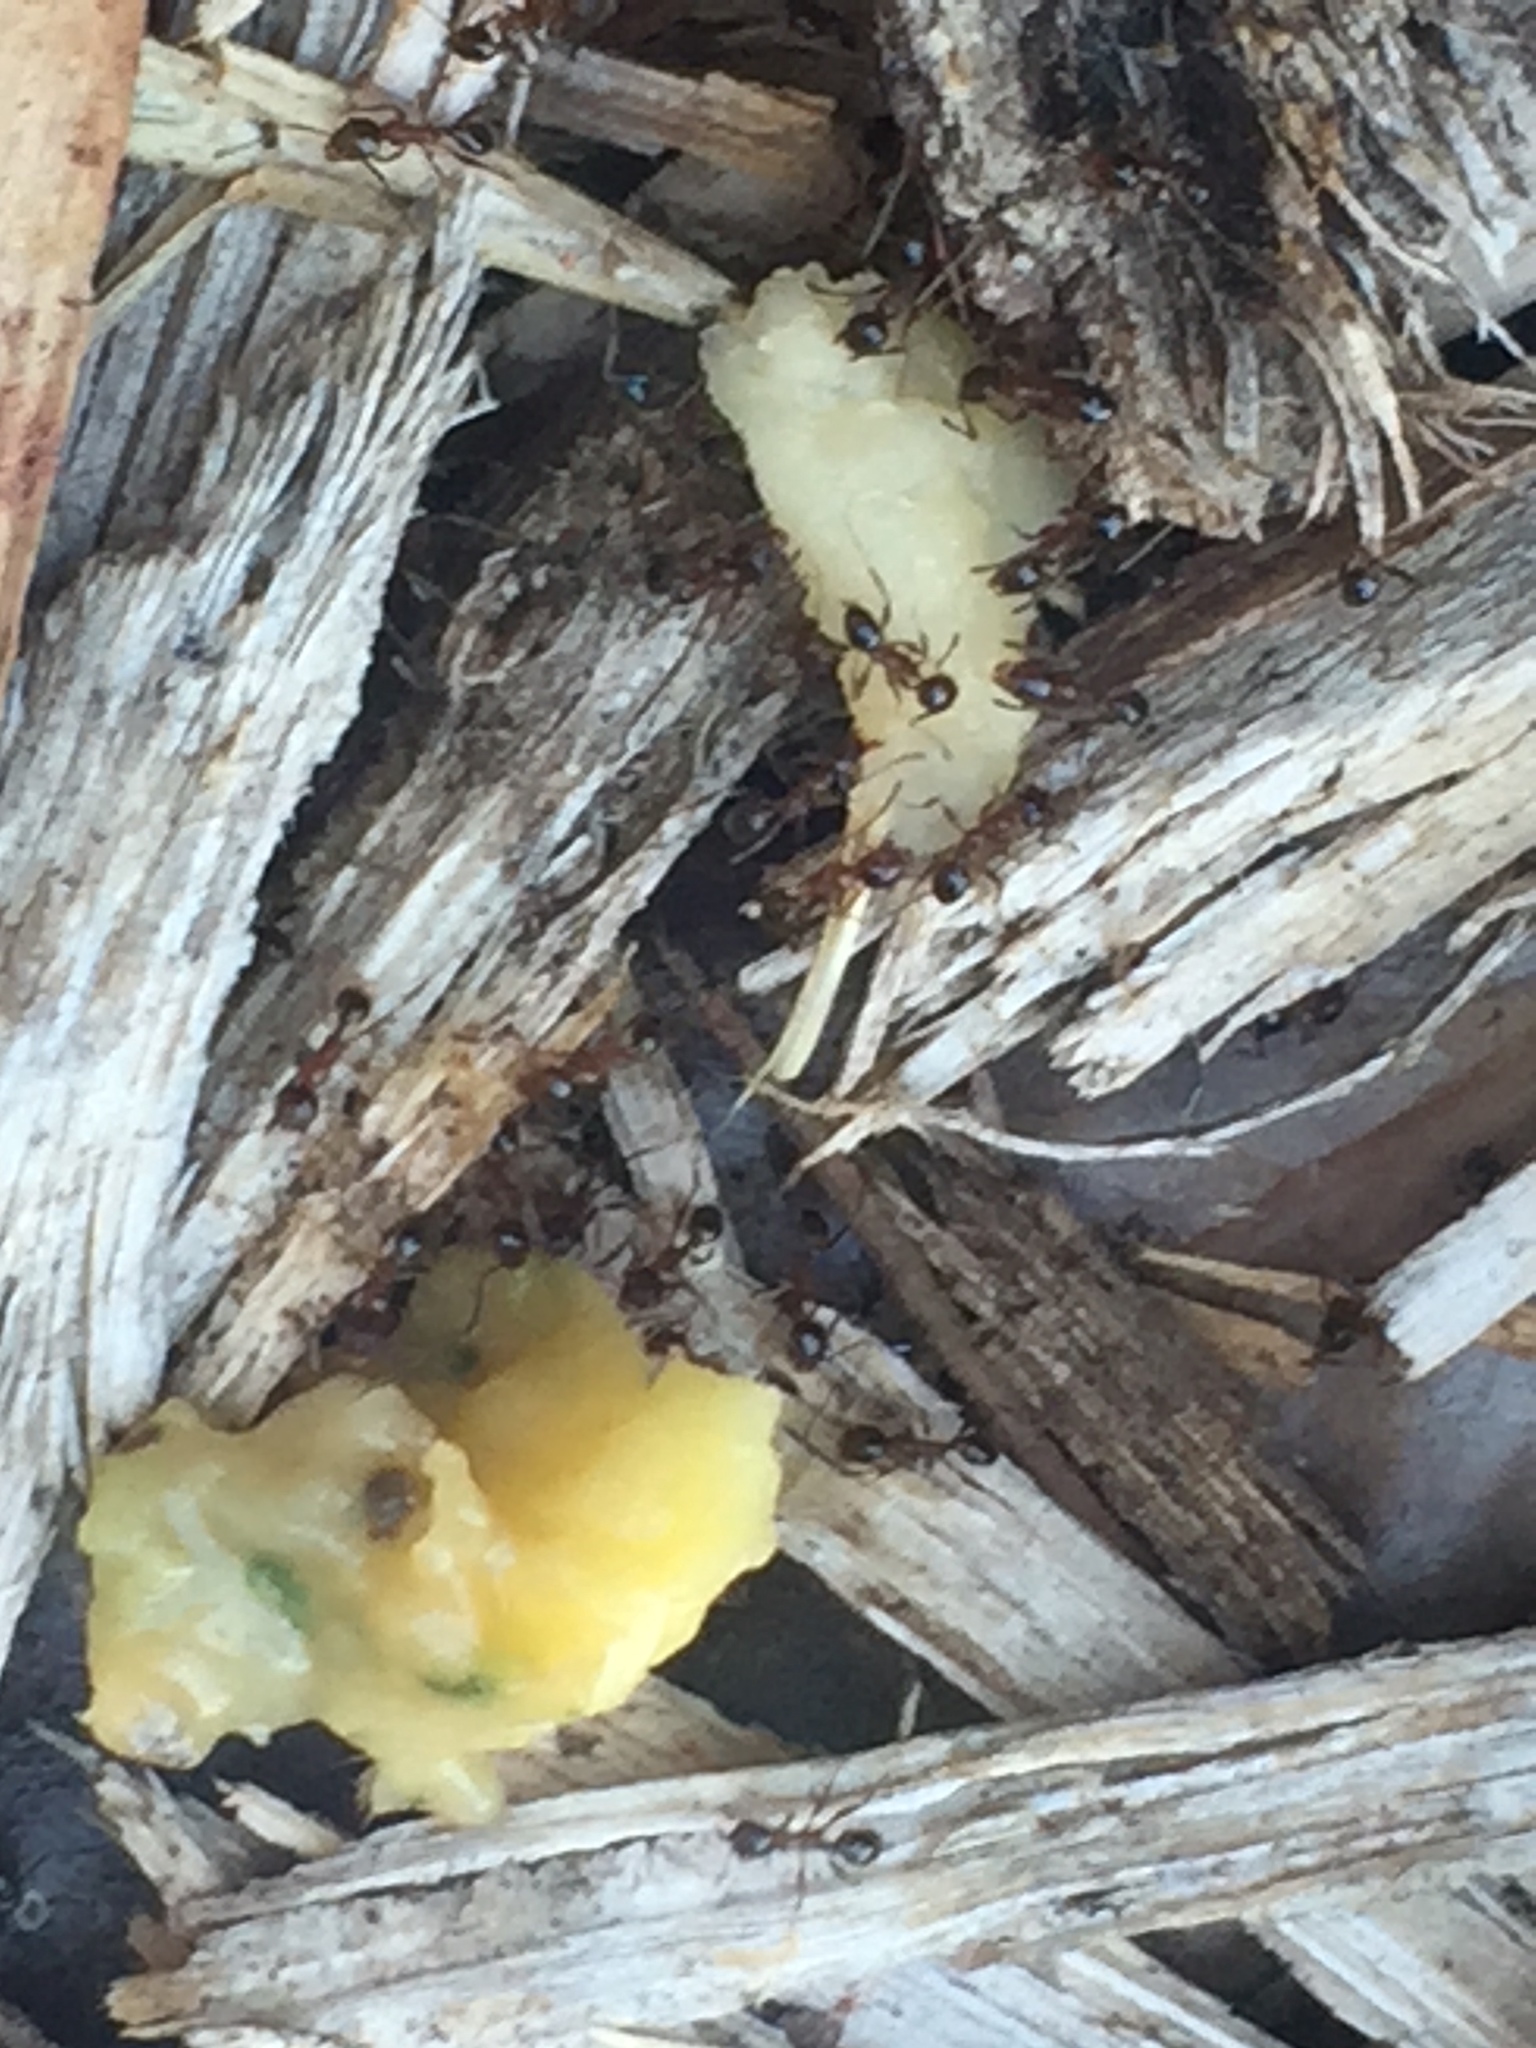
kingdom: Animalia
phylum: Arthropoda
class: Insecta
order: Hymenoptera
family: Formicidae
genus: Pheidole
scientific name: Pheidole dentata
